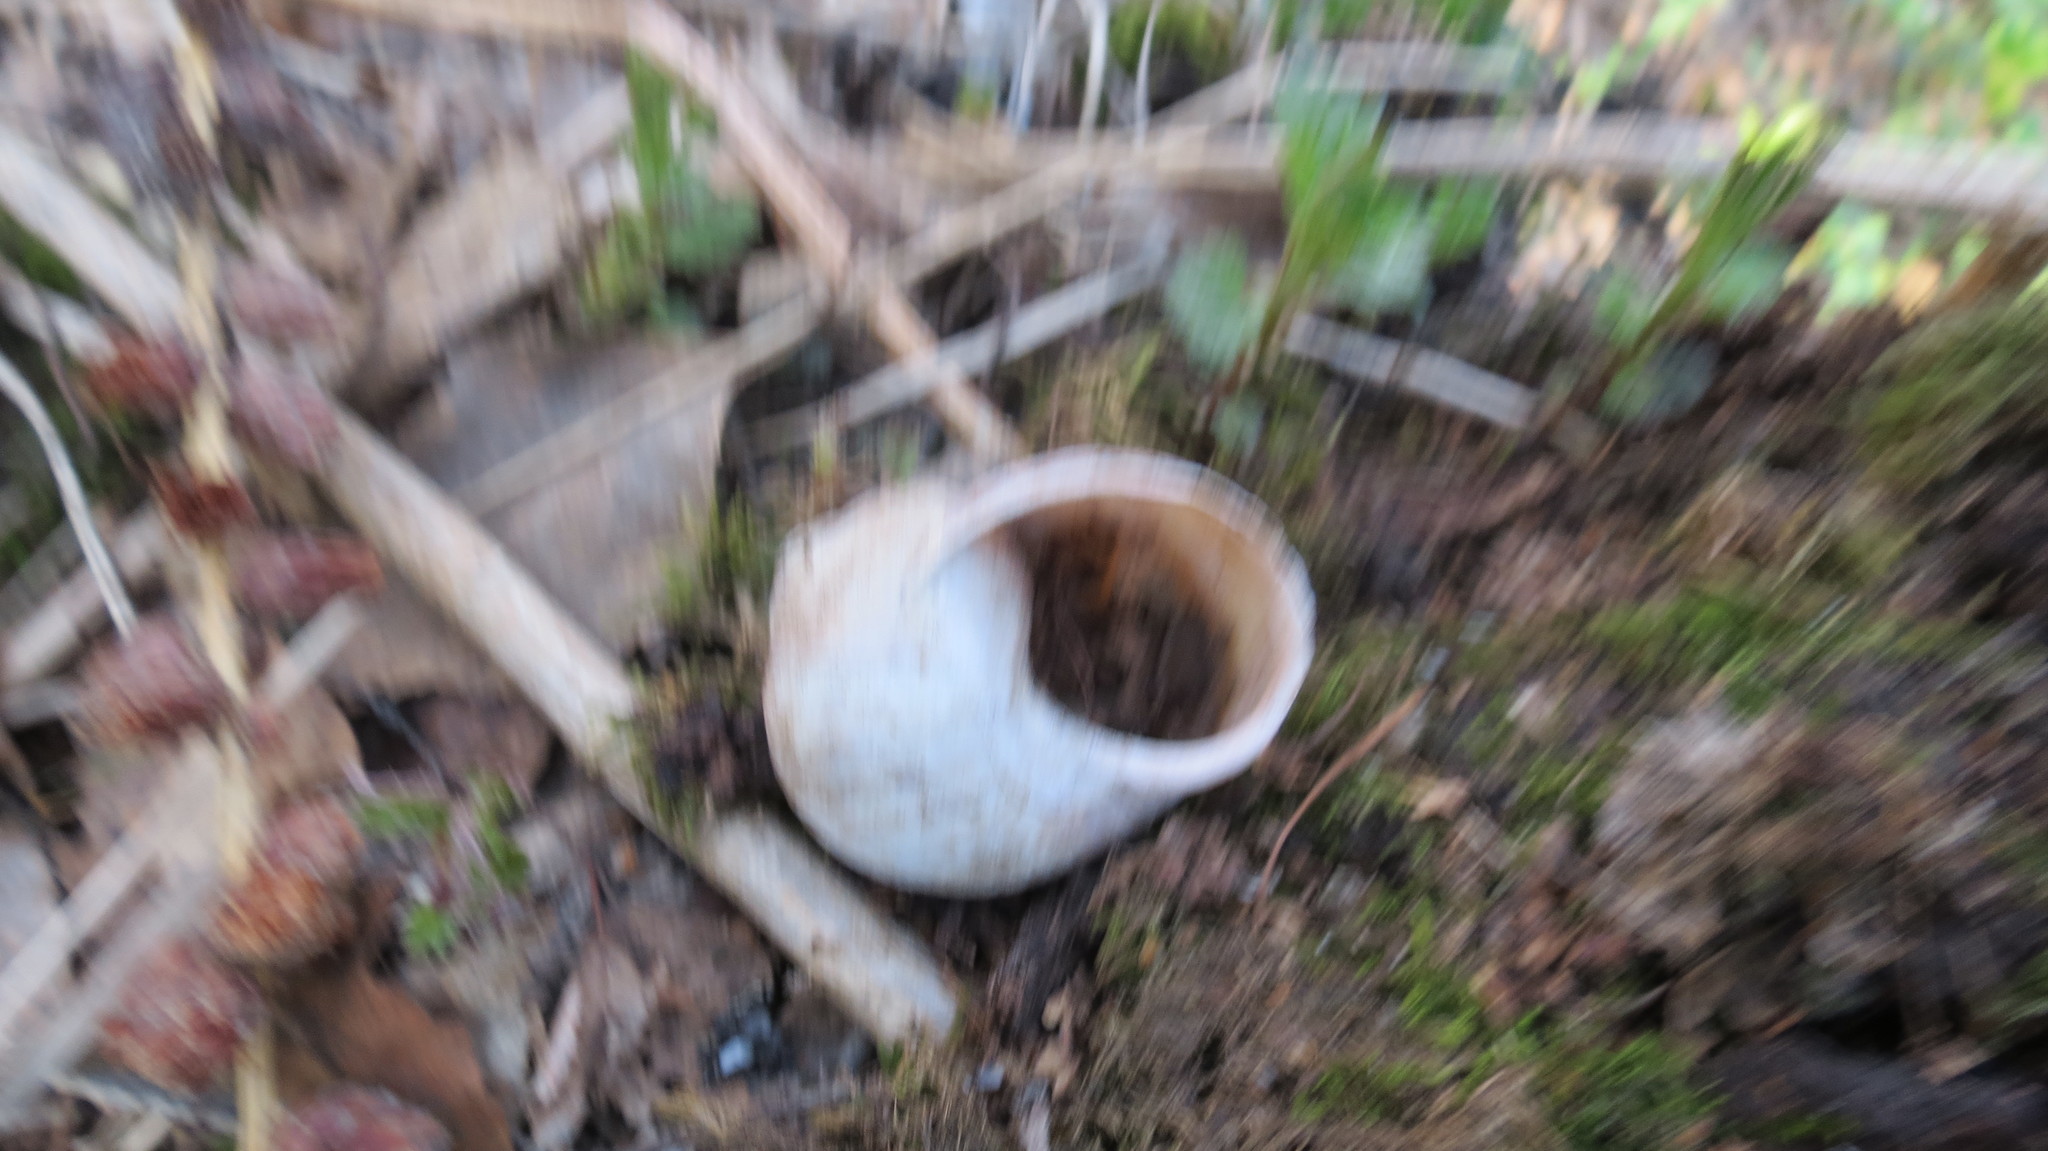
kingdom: Animalia
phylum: Mollusca
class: Gastropoda
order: Stylommatophora
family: Helicidae
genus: Helix
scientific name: Helix pomatia
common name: Roman snail
